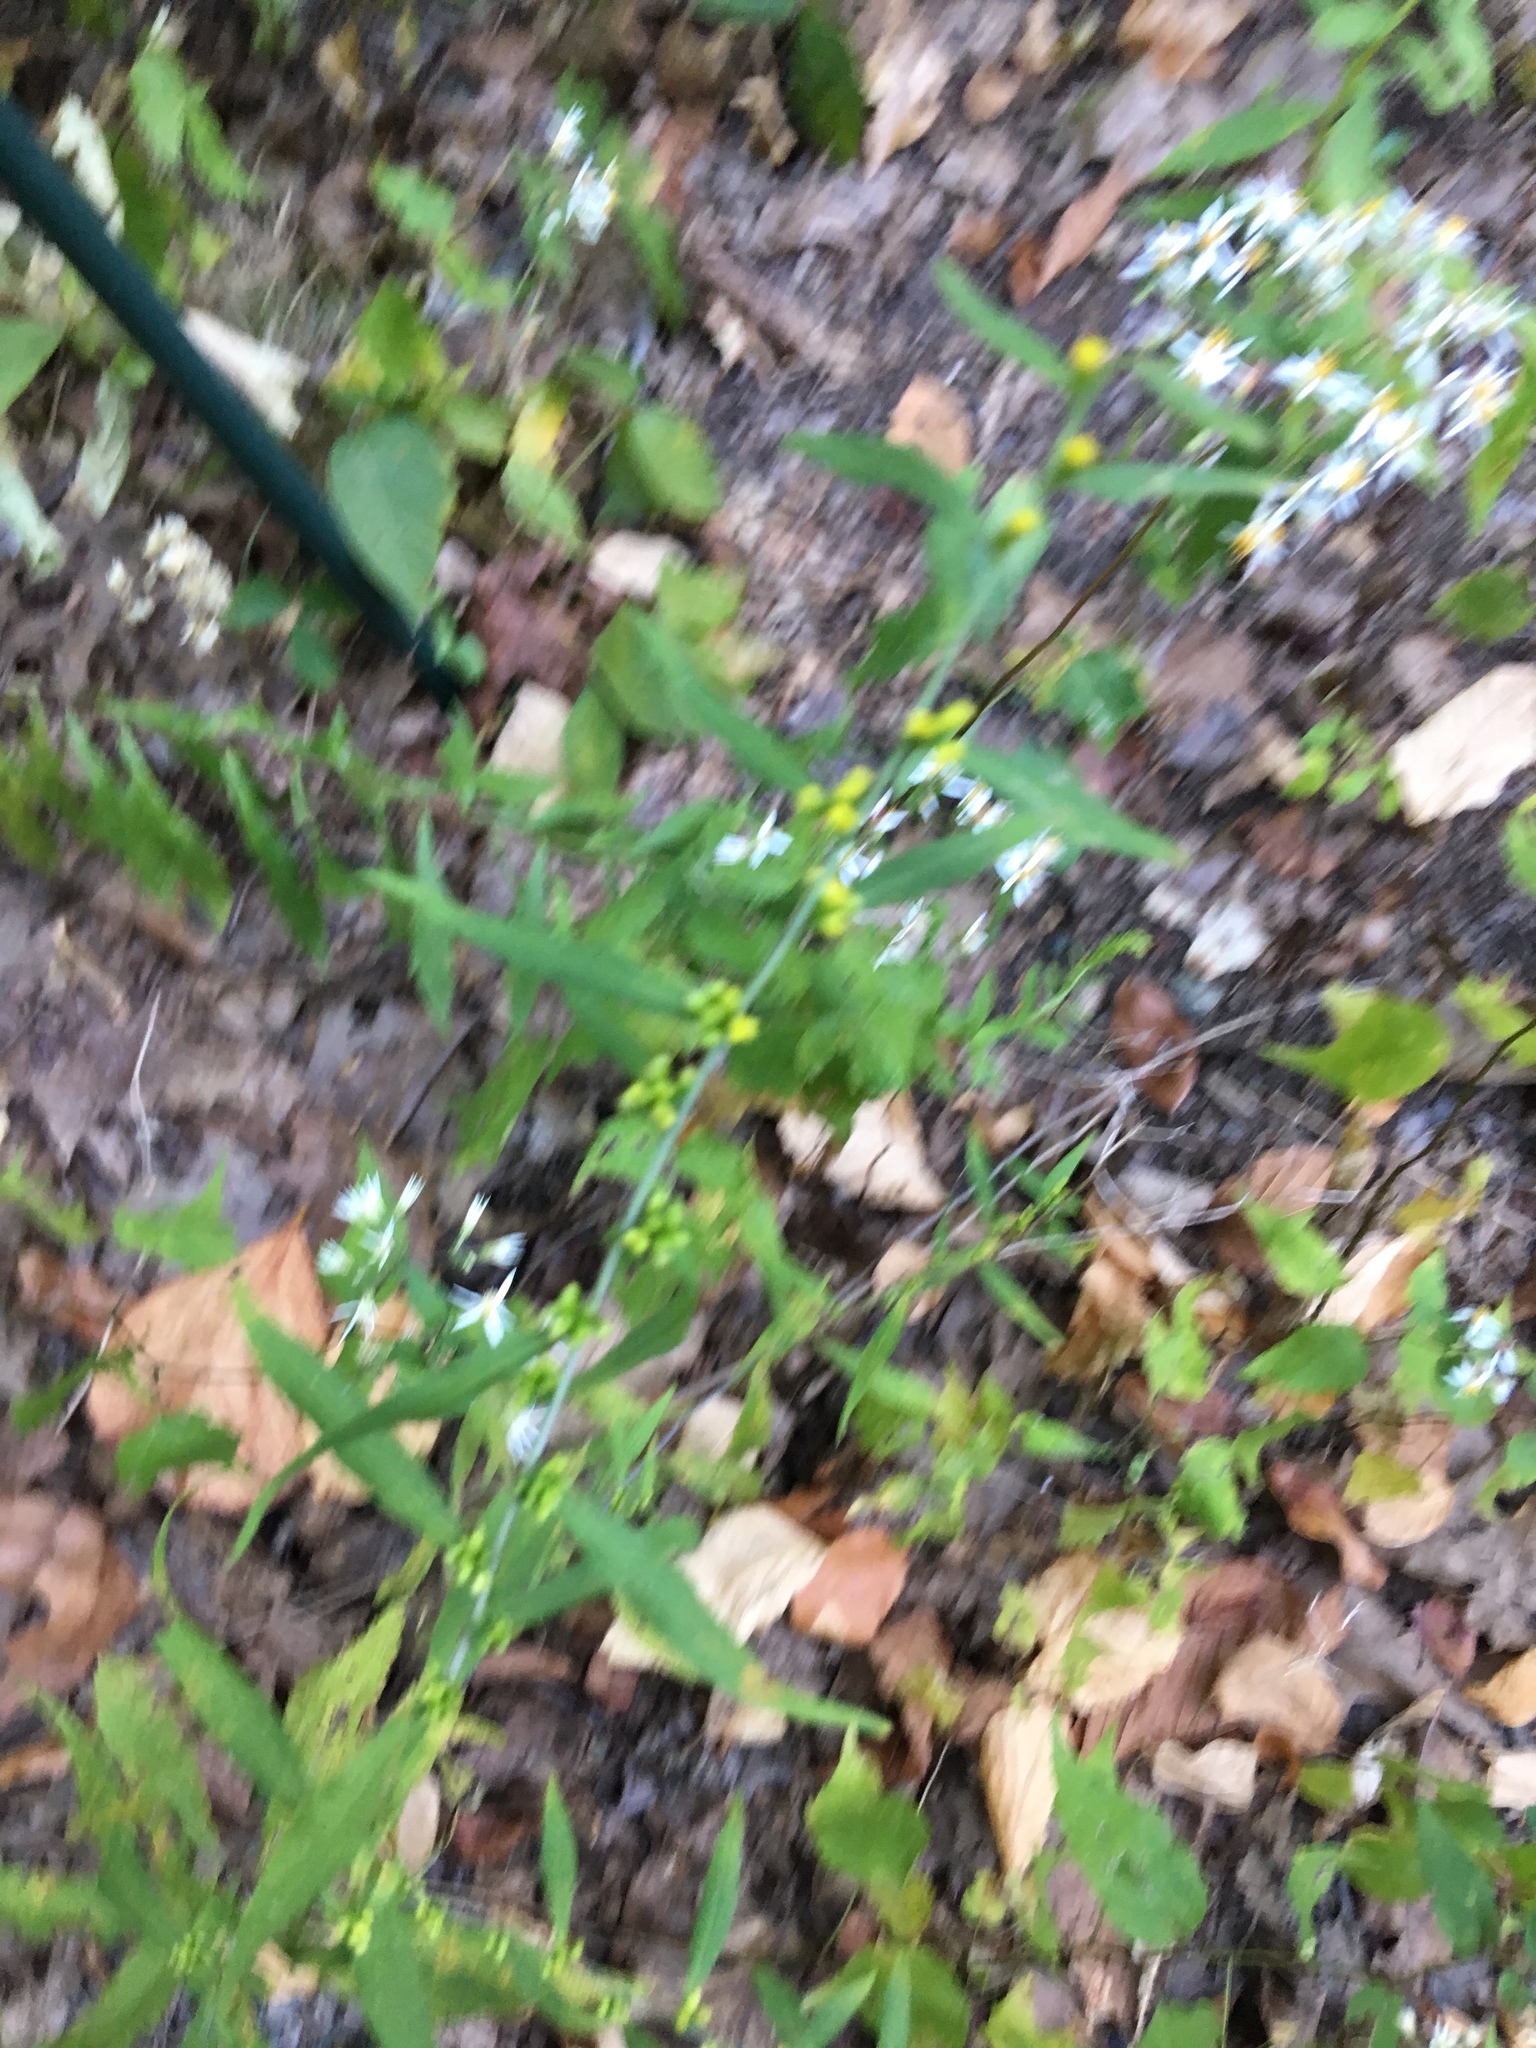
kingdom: Plantae
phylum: Tracheophyta
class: Magnoliopsida
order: Asterales
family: Asteraceae
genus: Solidago
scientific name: Solidago caesia
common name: Woodland goldenrod
